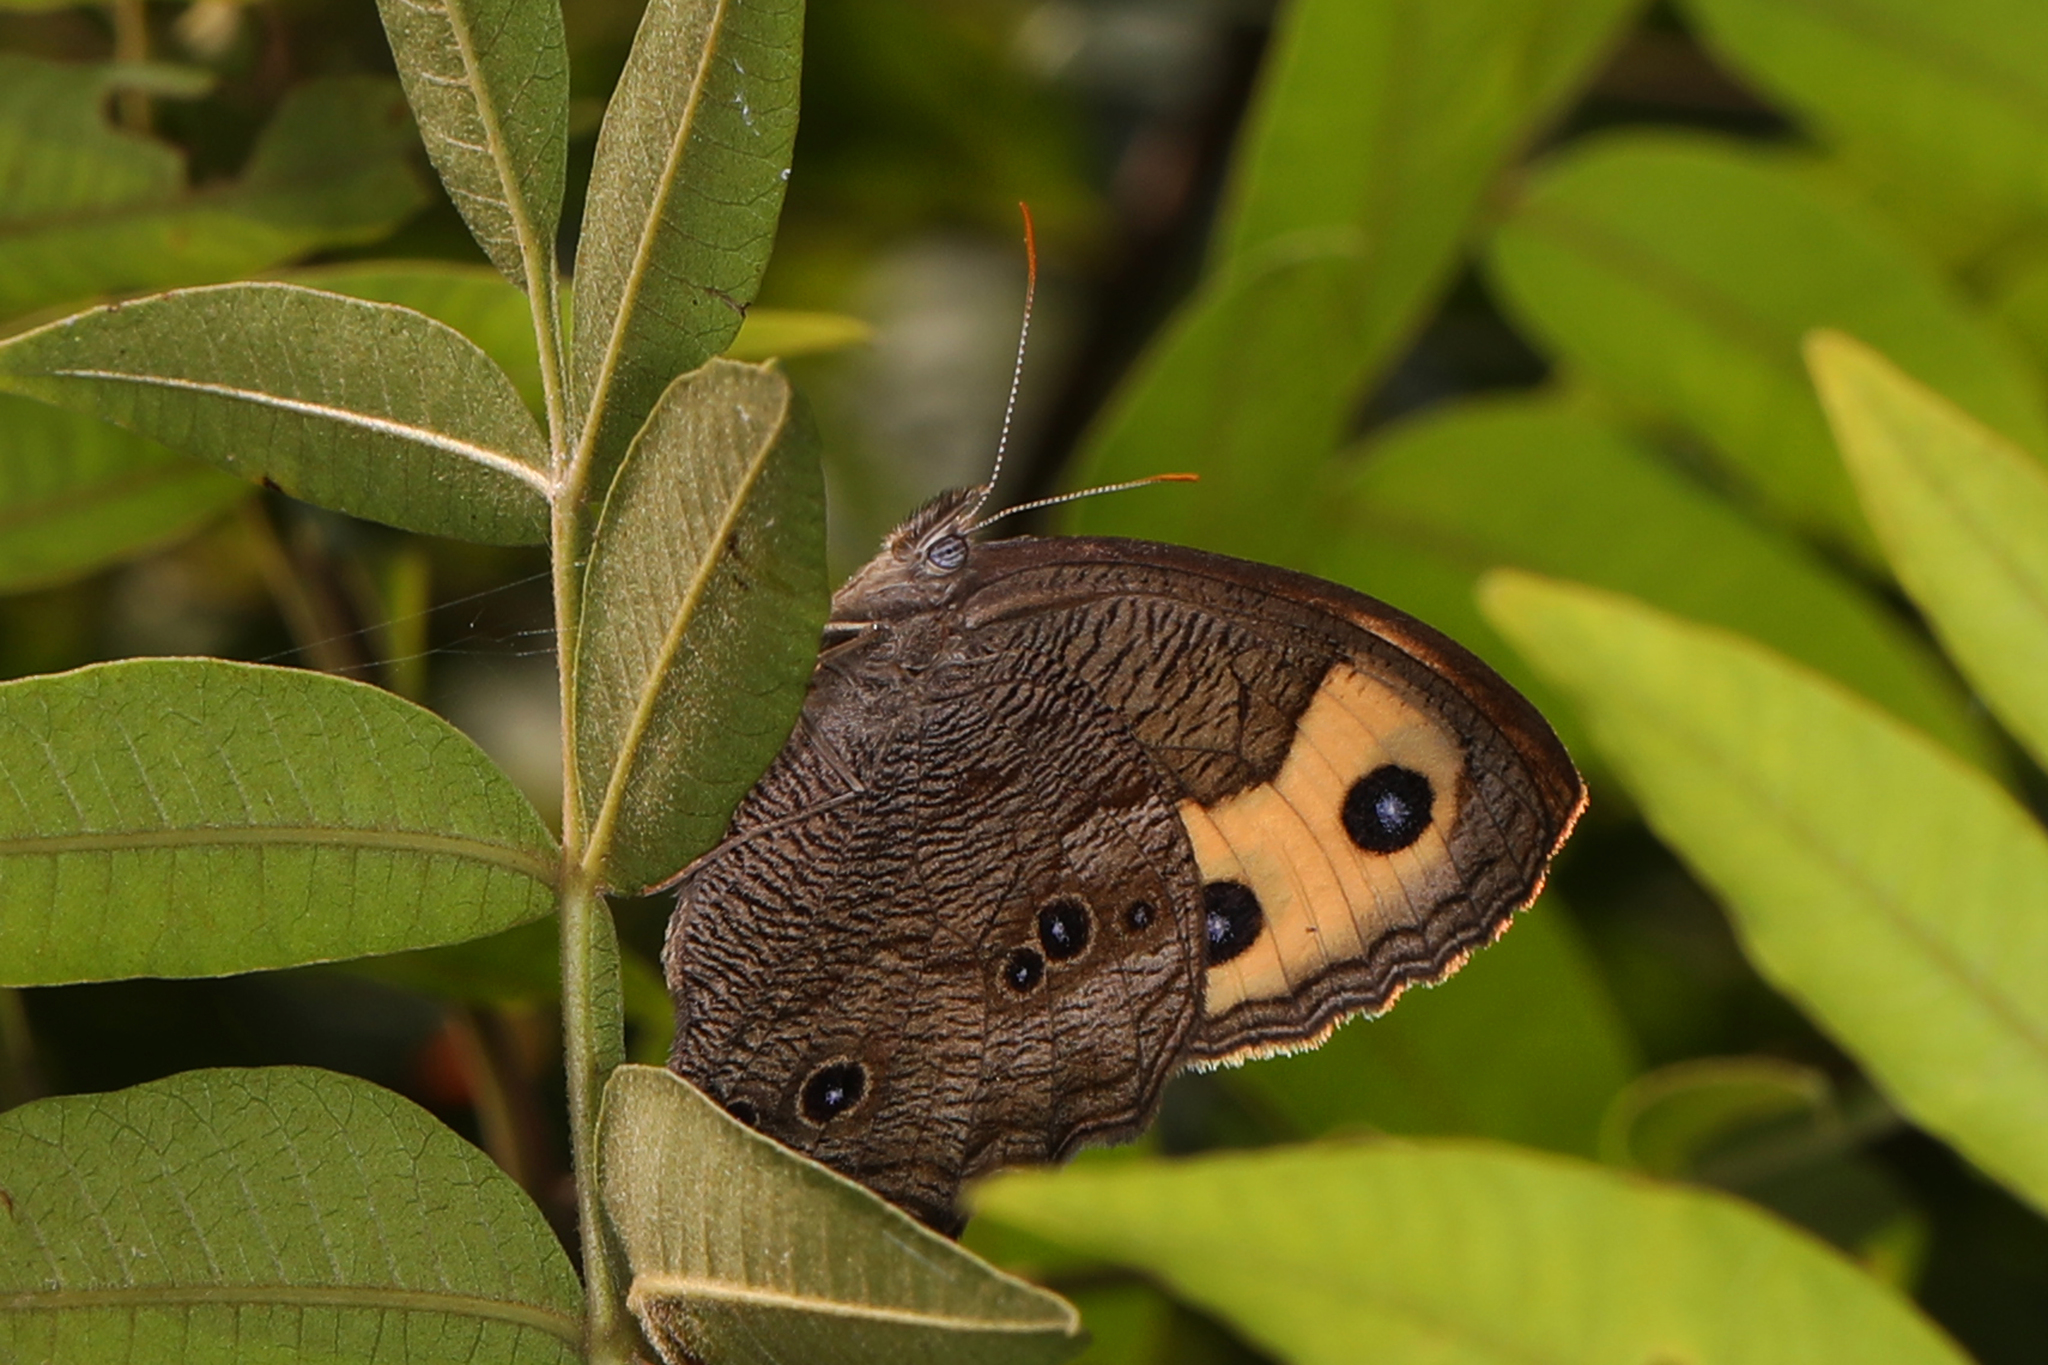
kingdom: Animalia
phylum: Arthropoda
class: Insecta
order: Lepidoptera
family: Nymphalidae
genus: Cercyonis
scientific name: Cercyonis pegala
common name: Common wood-nymph
